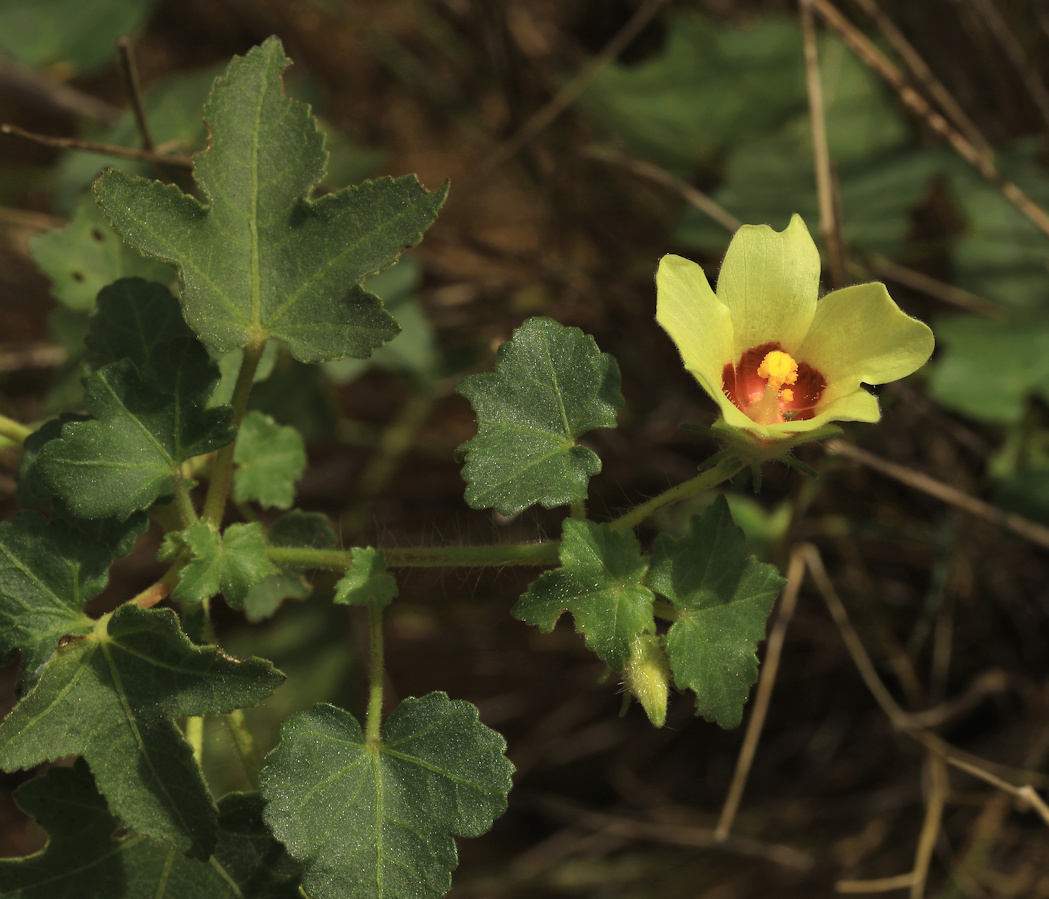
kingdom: Plantae
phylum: Tracheophyta
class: Magnoliopsida
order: Malvales
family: Malvaceae
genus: Hibiscus
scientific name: Hibiscus schinzii
